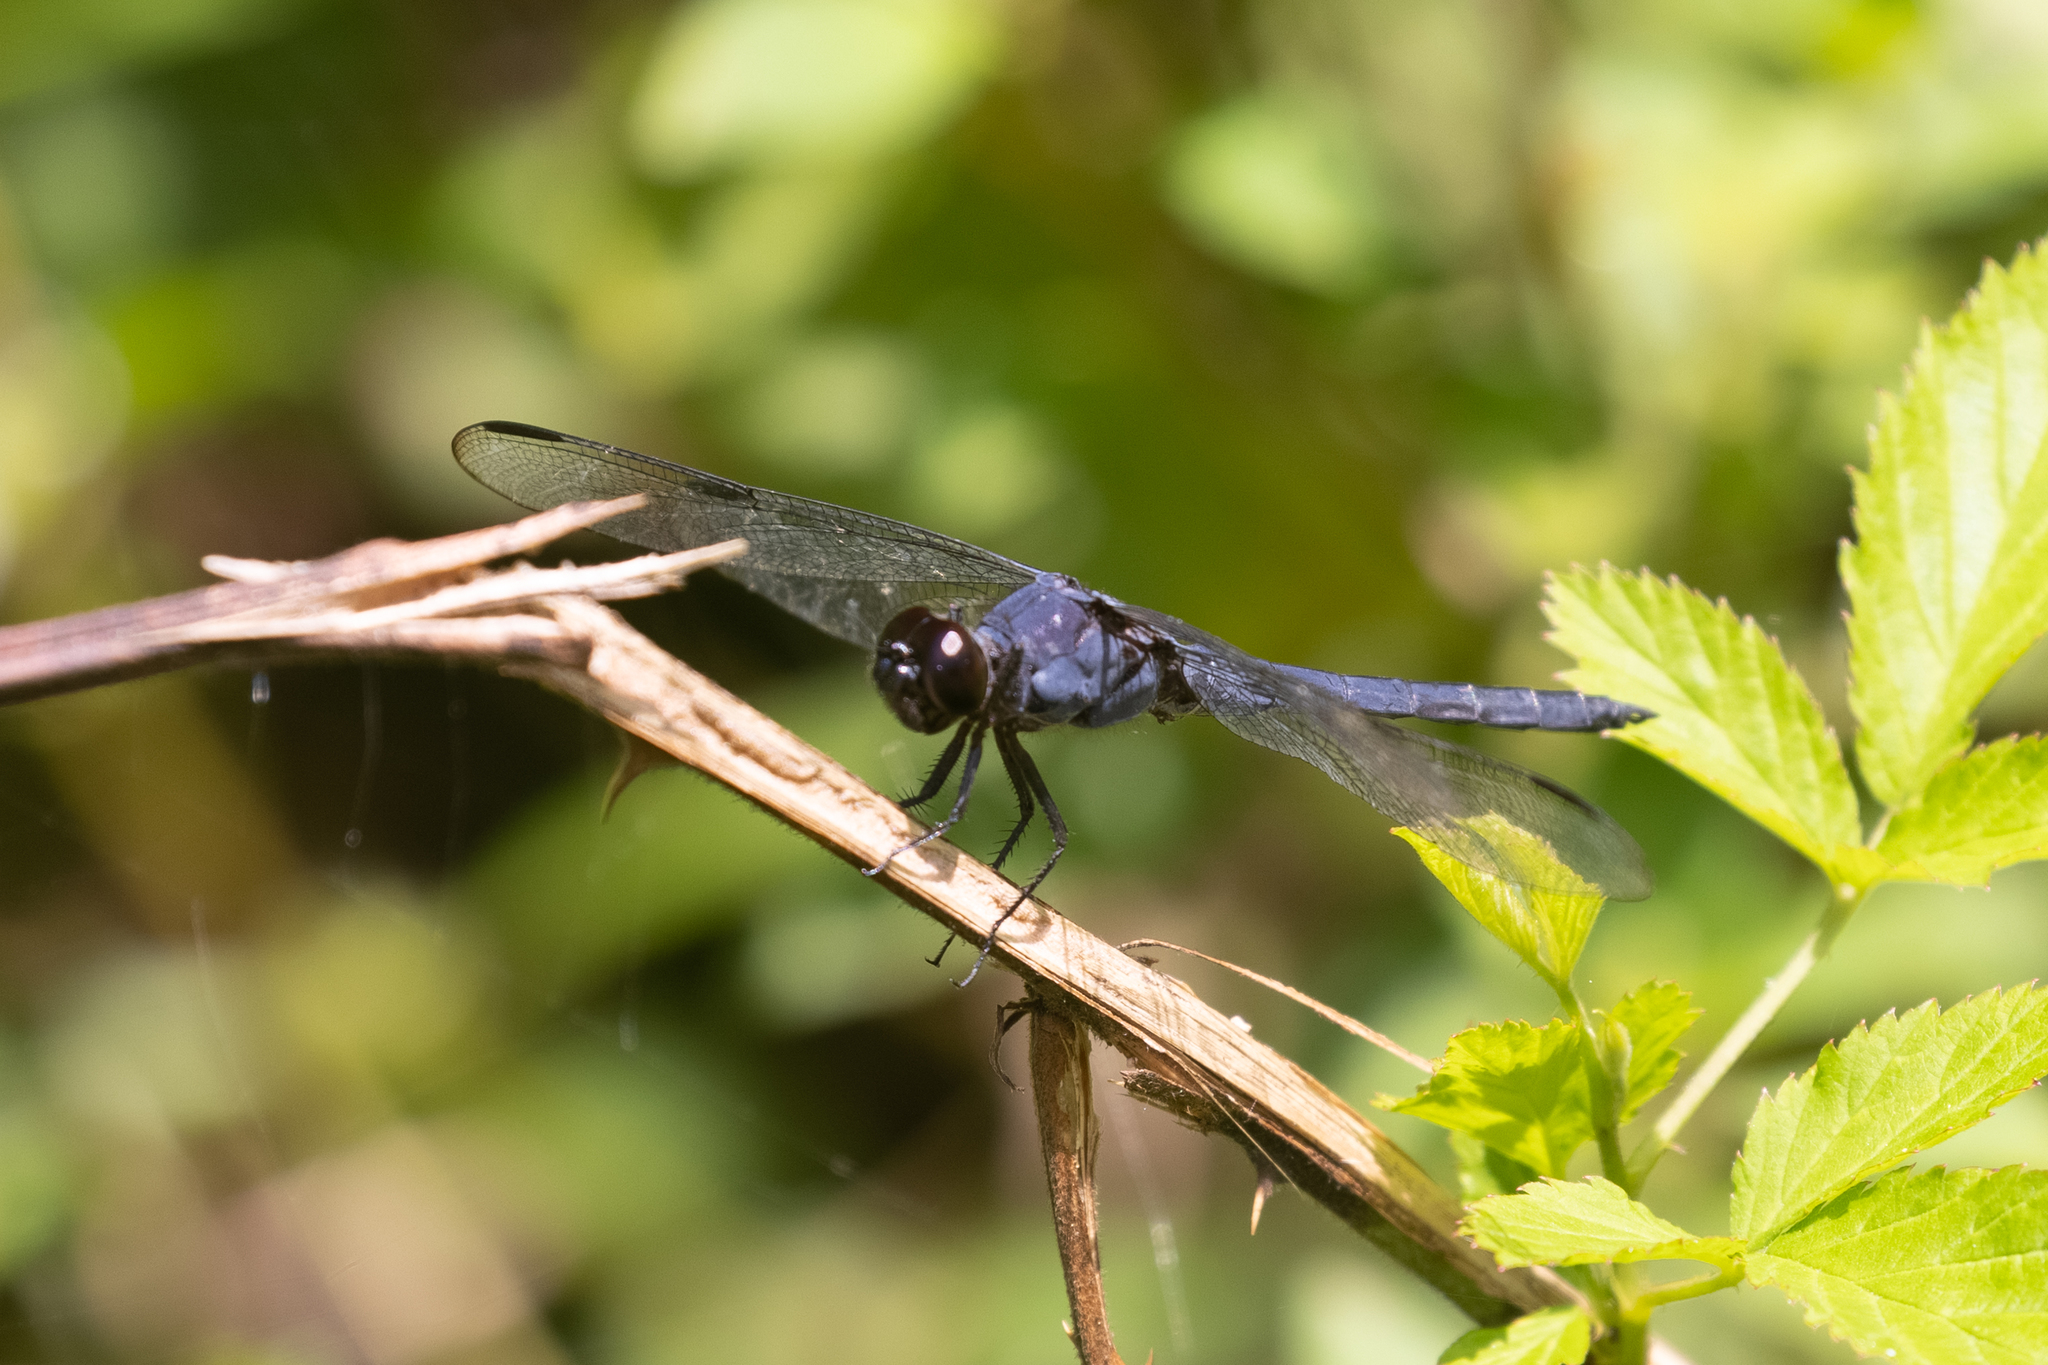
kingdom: Animalia
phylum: Arthropoda
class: Insecta
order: Odonata
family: Libellulidae
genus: Libellula
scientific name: Libellula incesta
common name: Slaty skimmer
